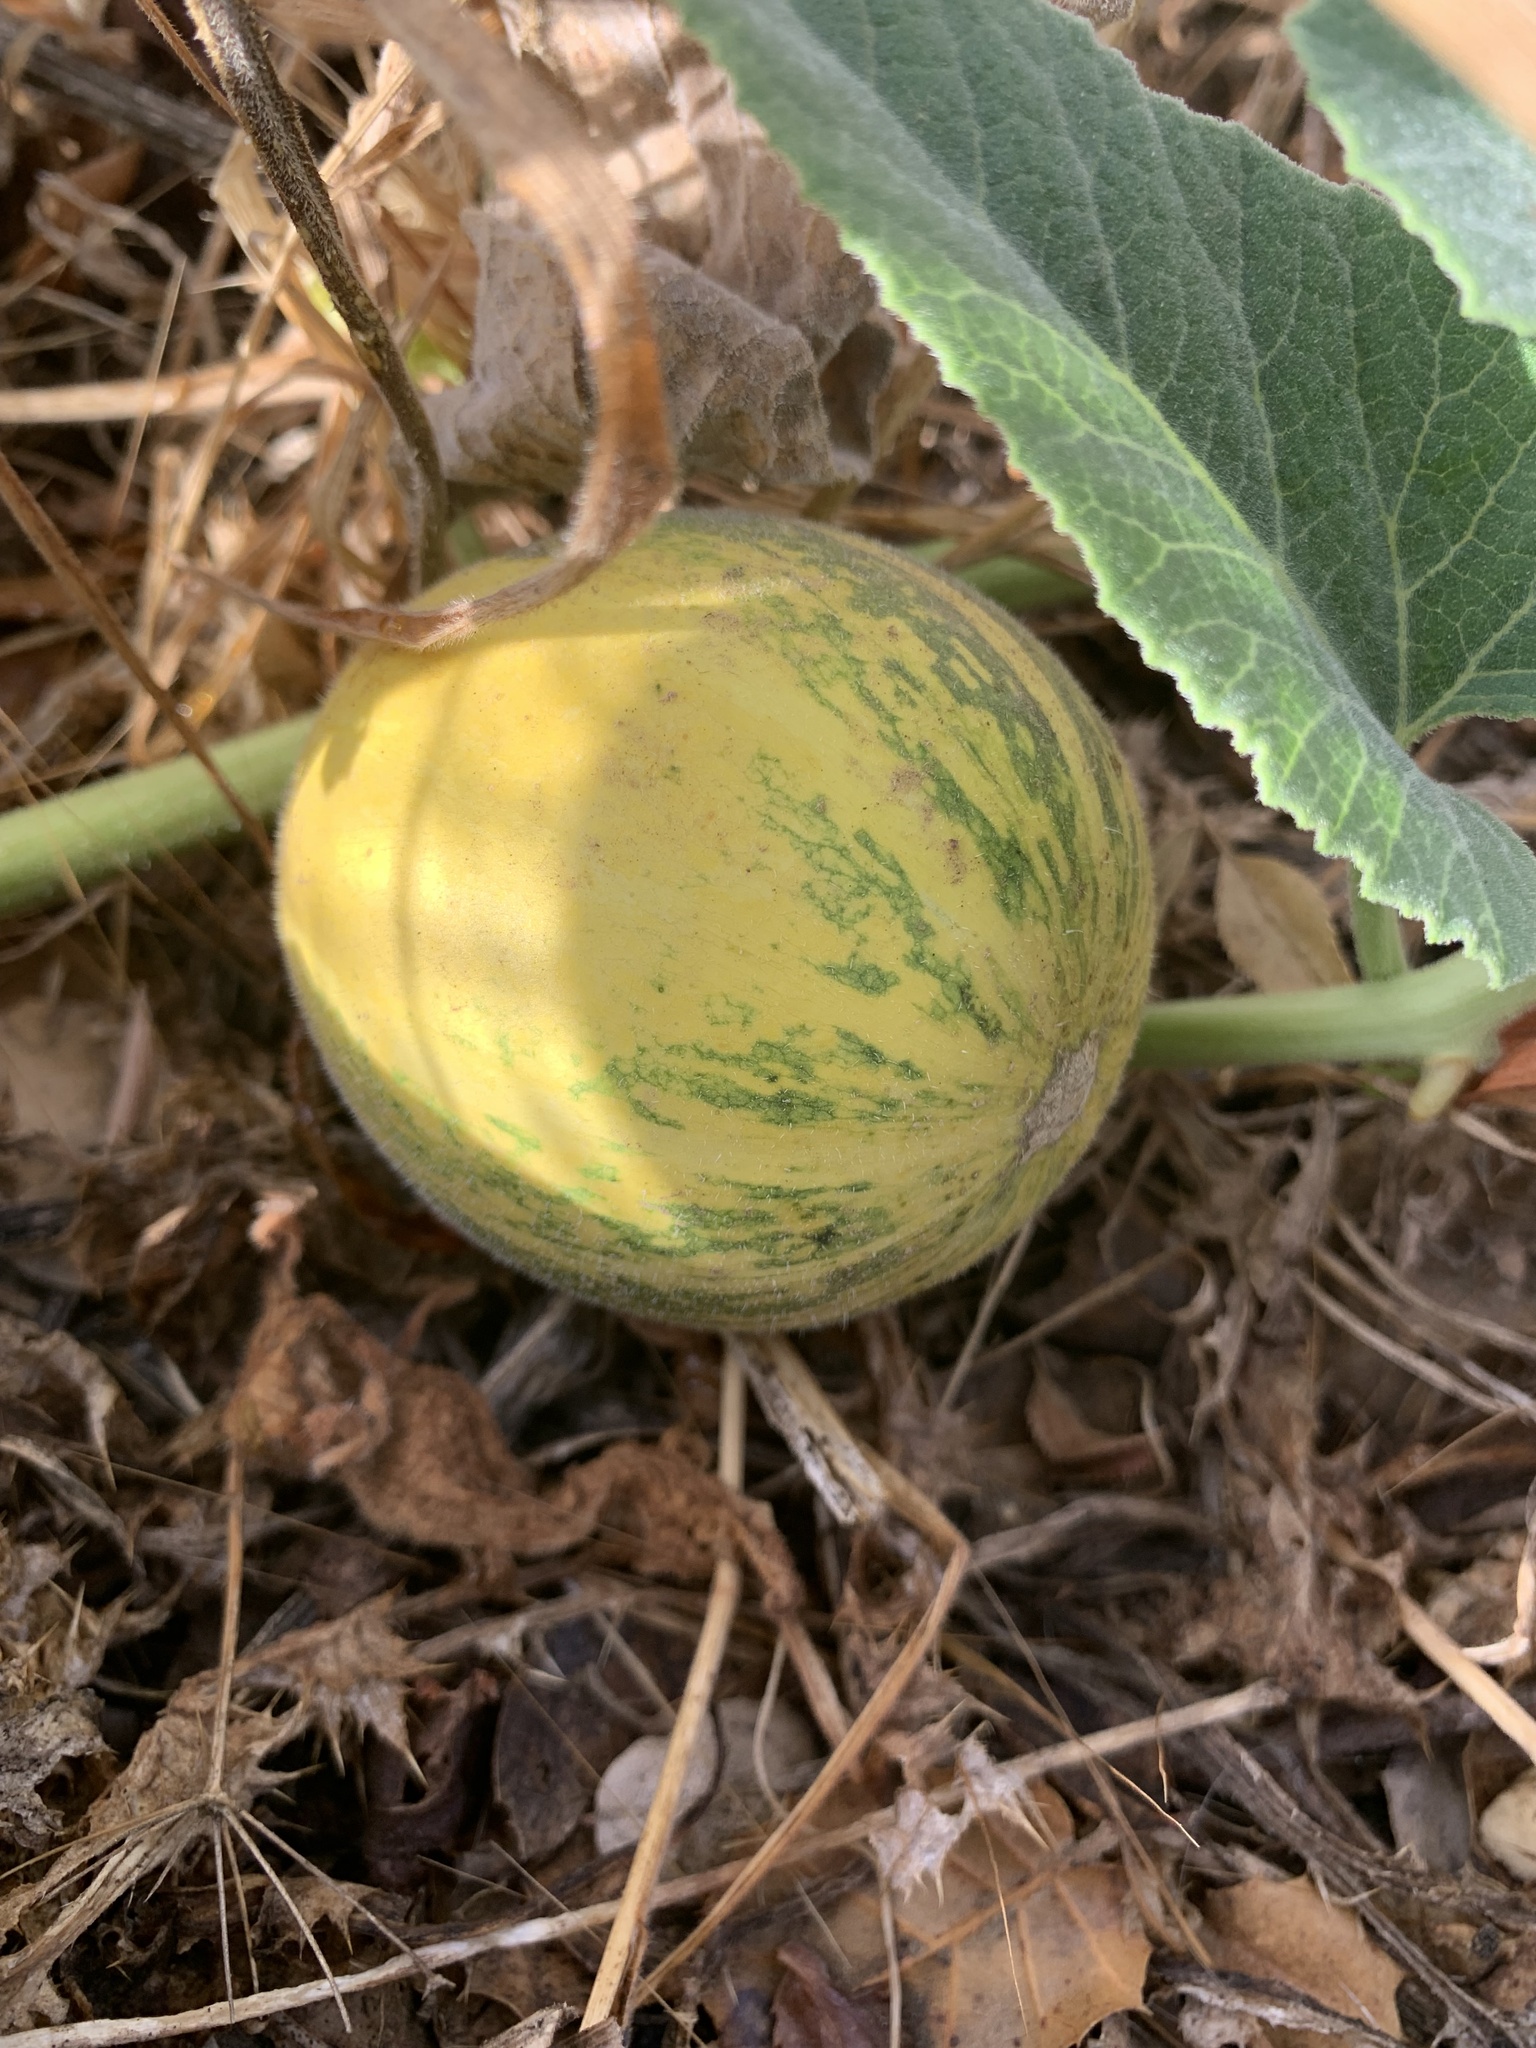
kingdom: Plantae
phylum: Tracheophyta
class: Magnoliopsida
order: Cucurbitales
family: Cucurbitaceae
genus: Cucurbita
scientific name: Cucurbita foetidissima
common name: Buffalo gourd
